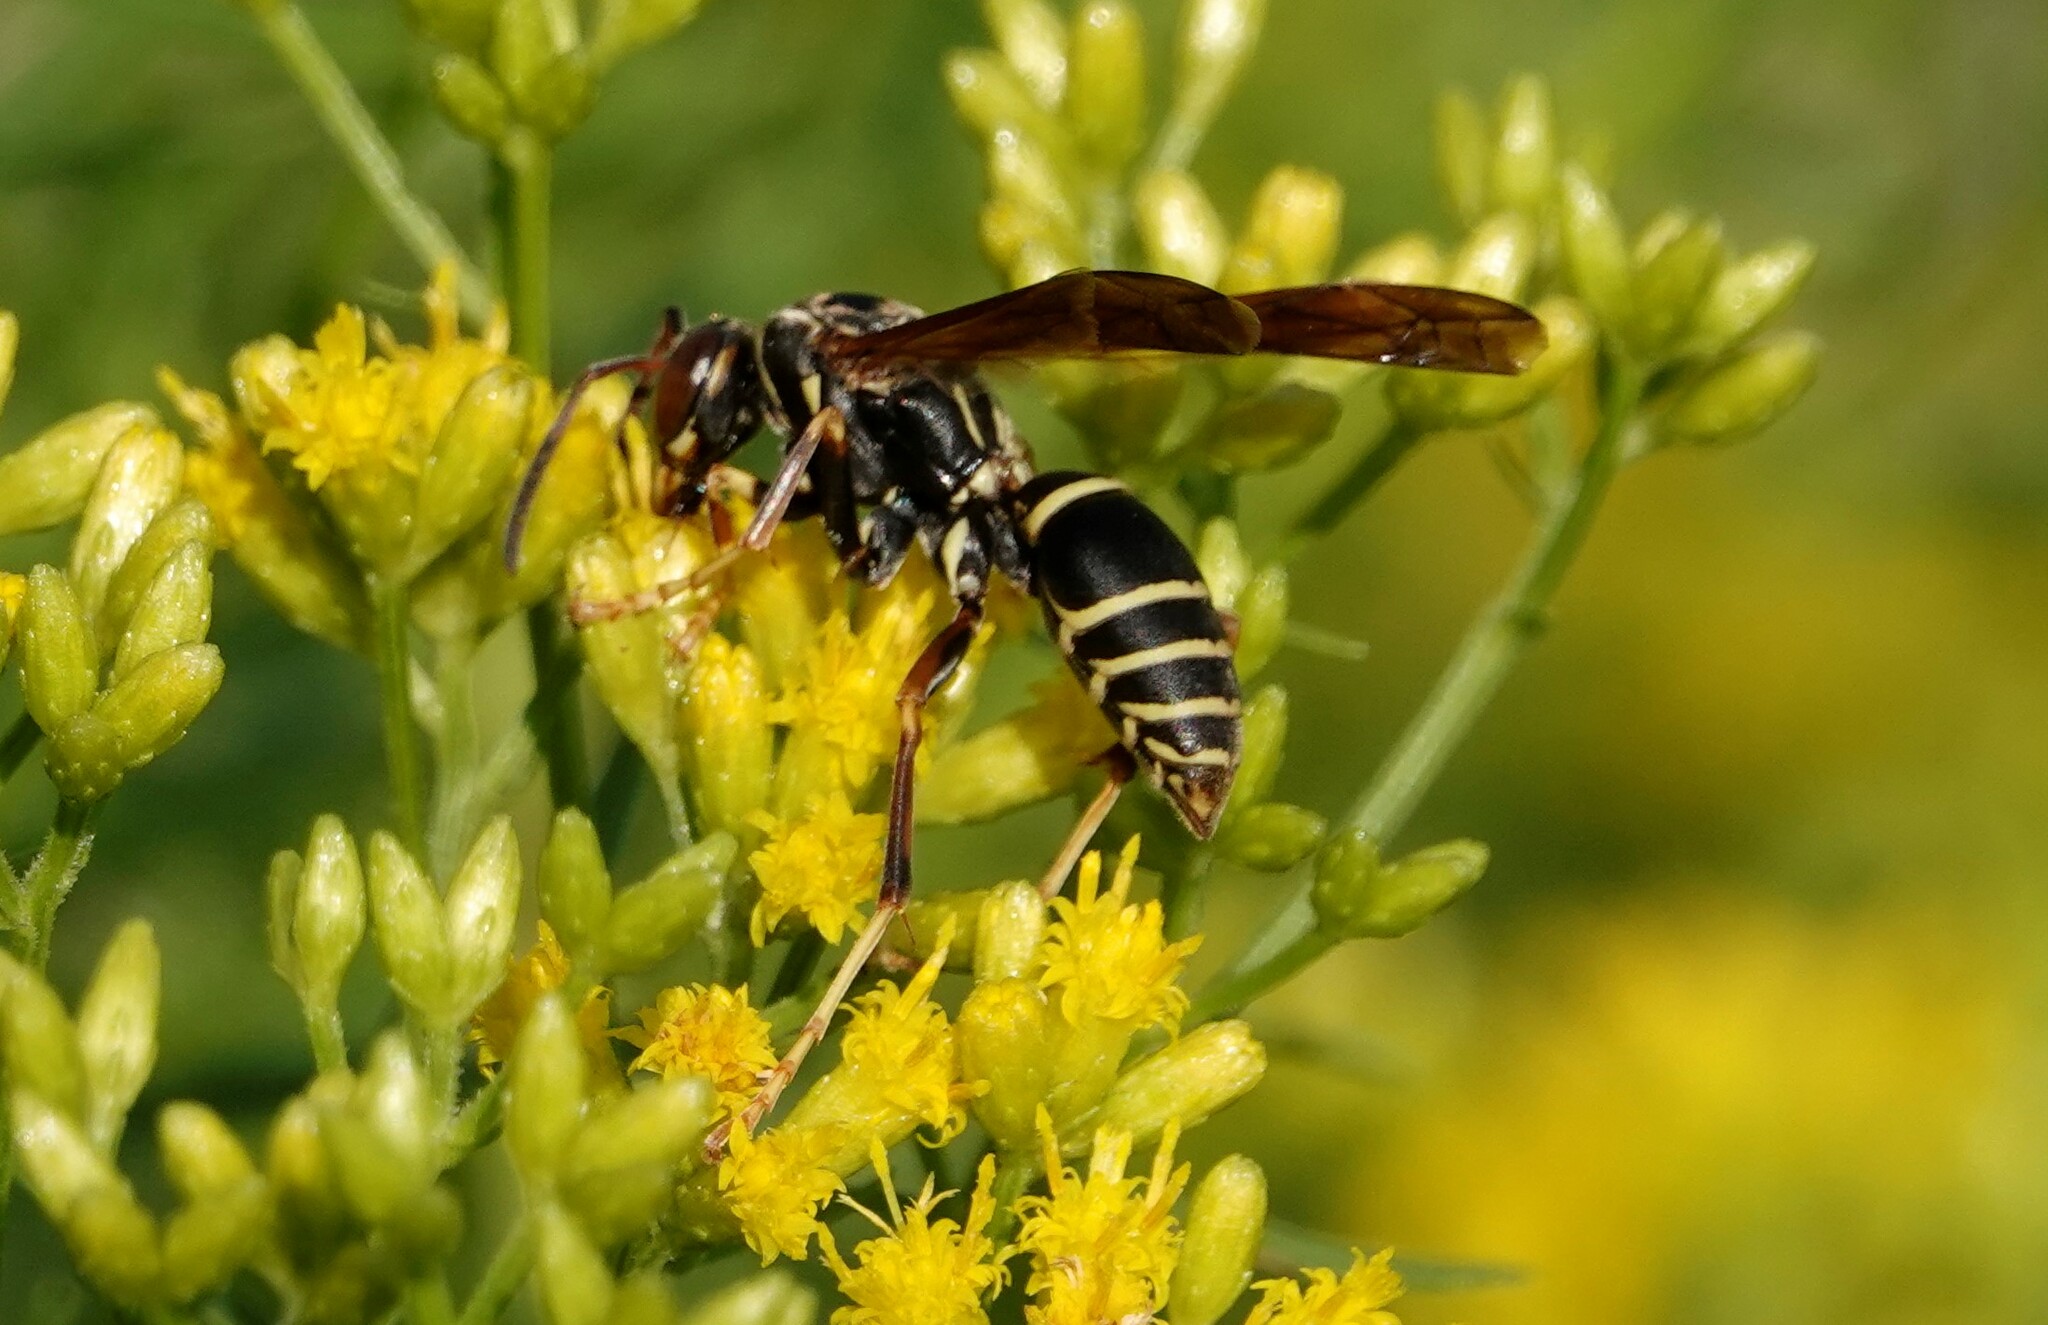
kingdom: Animalia
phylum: Arthropoda
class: Insecta
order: Hymenoptera
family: Eumenidae
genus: Polistes
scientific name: Polistes fuscatus
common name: Dark paper wasp
